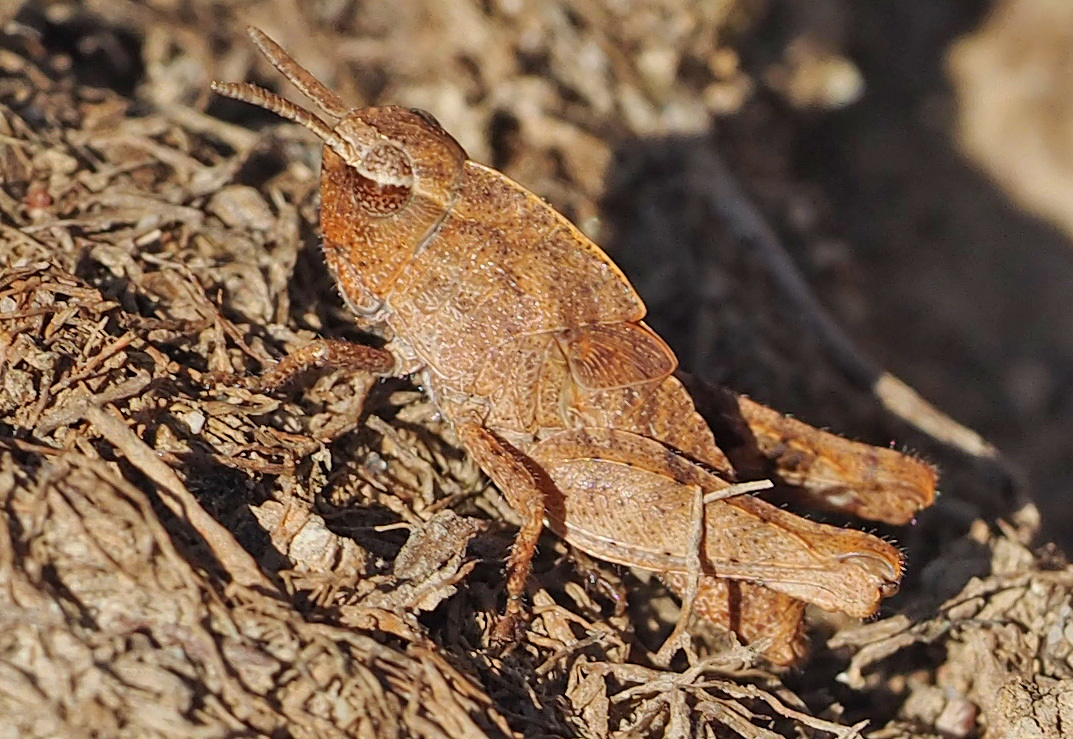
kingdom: Animalia
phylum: Arthropoda
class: Insecta
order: Orthoptera
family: Acrididae
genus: Chortophaga
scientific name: Chortophaga viridifasciata
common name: Green-striped grasshopper
